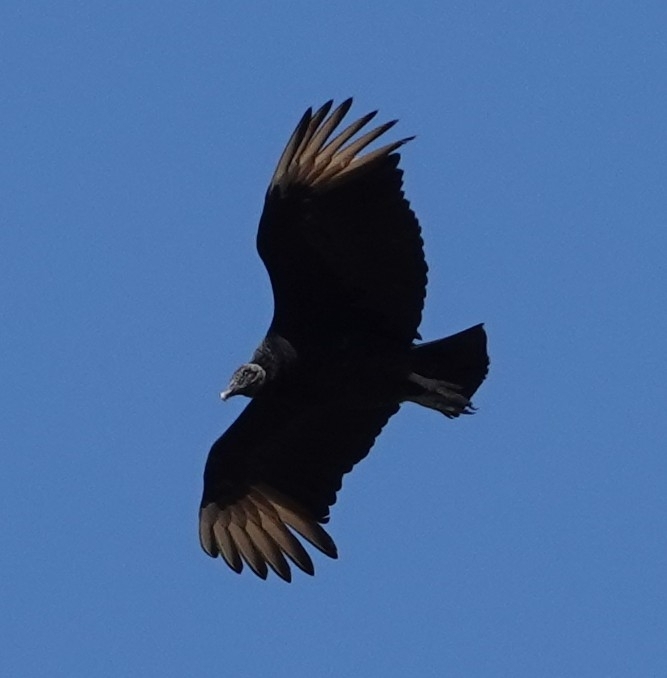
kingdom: Animalia
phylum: Chordata
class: Aves
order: Accipitriformes
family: Cathartidae
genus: Coragyps
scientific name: Coragyps atratus
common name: Black vulture
